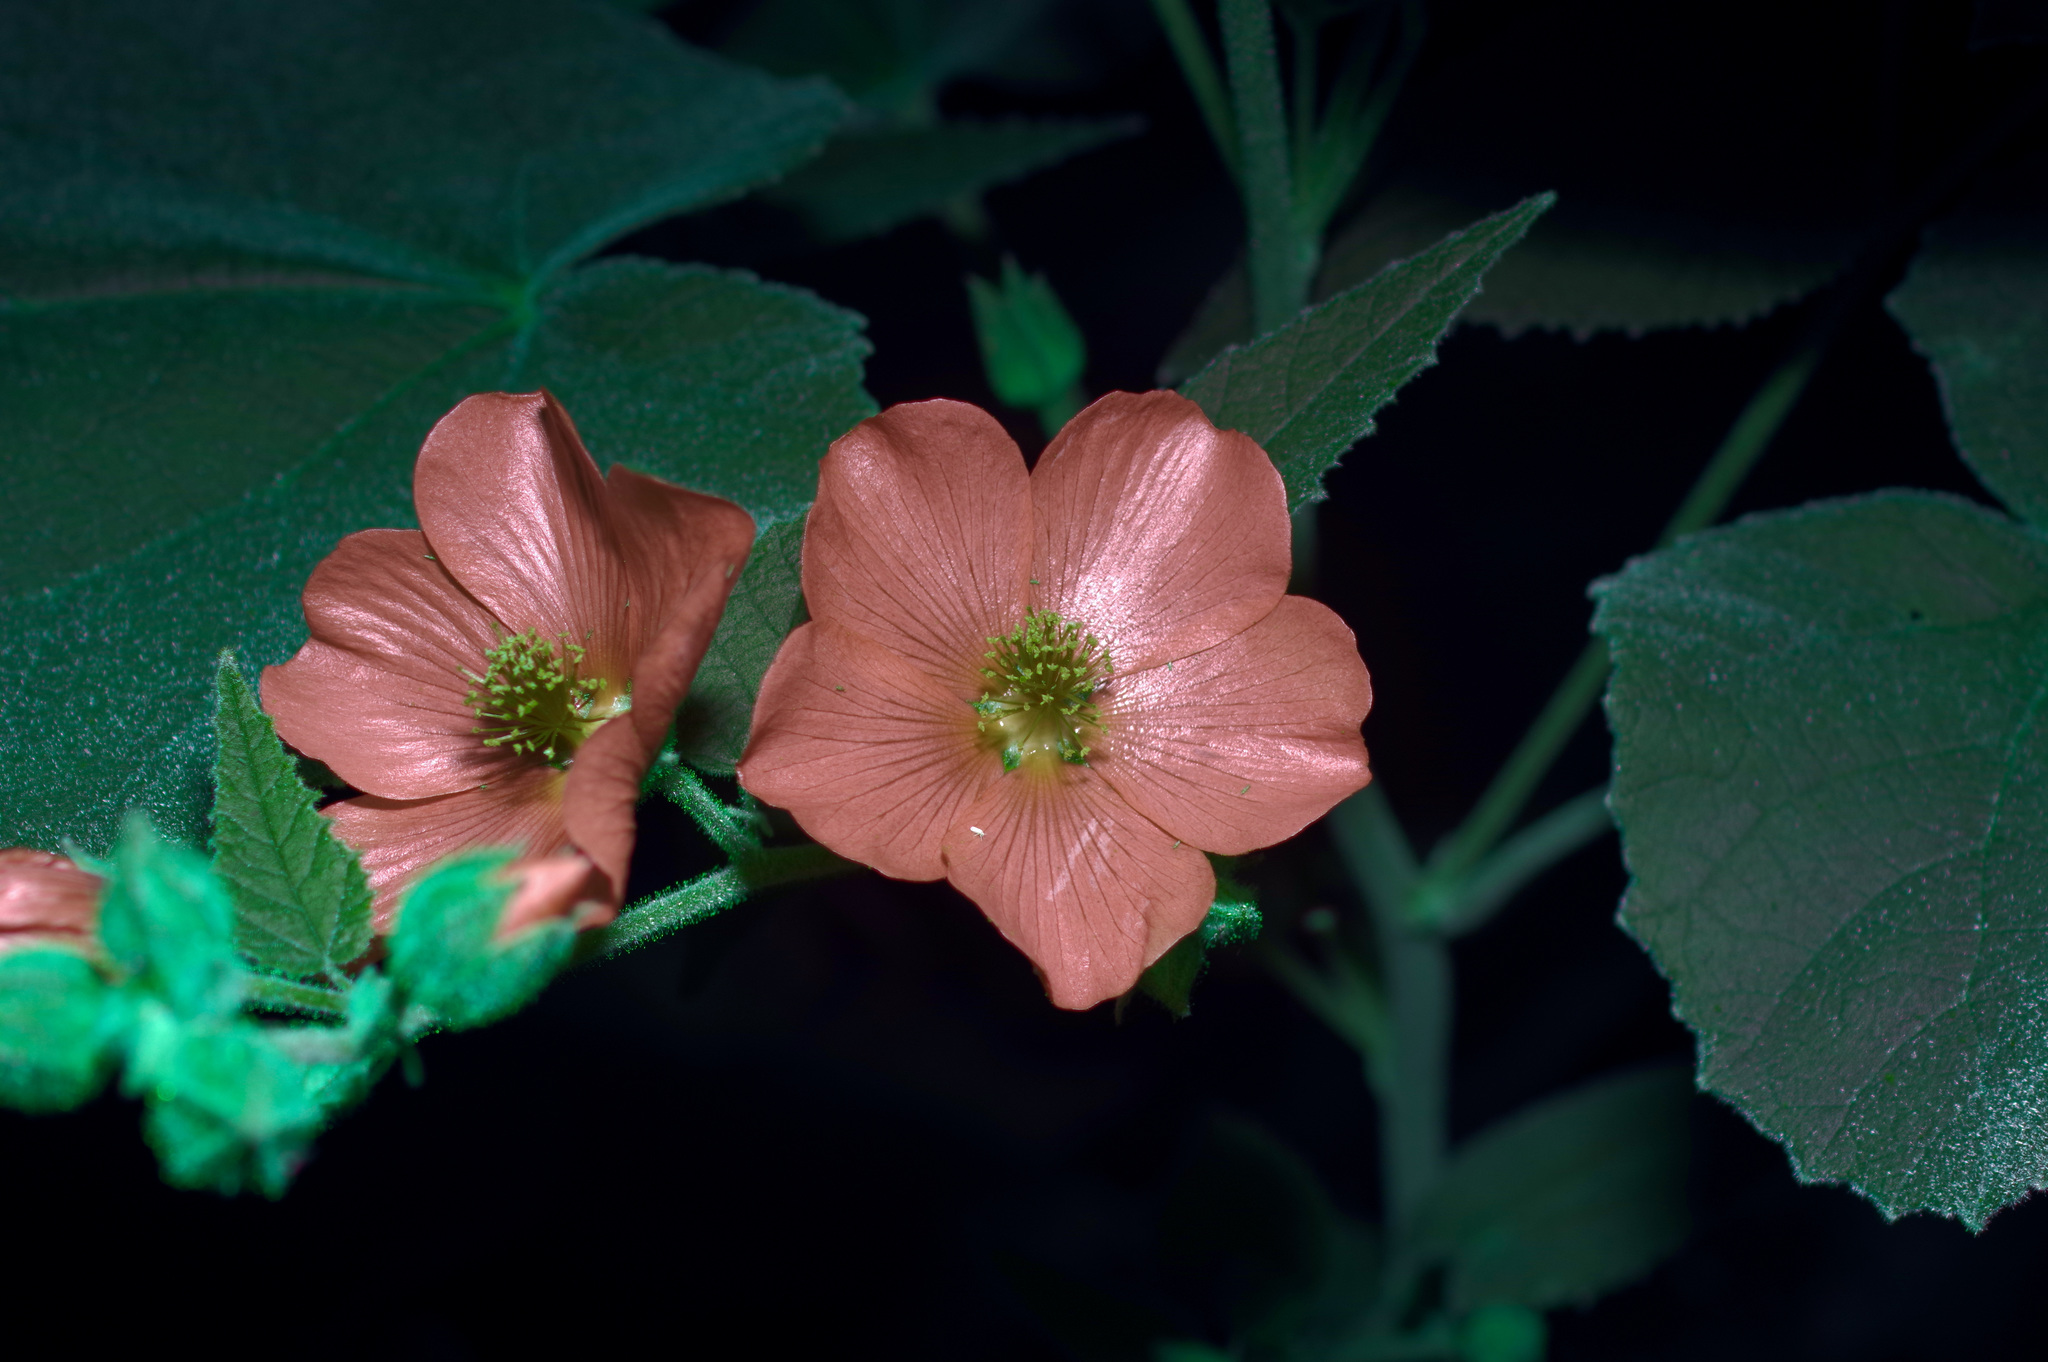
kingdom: Plantae
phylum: Tracheophyta
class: Magnoliopsida
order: Malvales
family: Malvaceae
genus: Allowissadula
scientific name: Allowissadula holosericea
